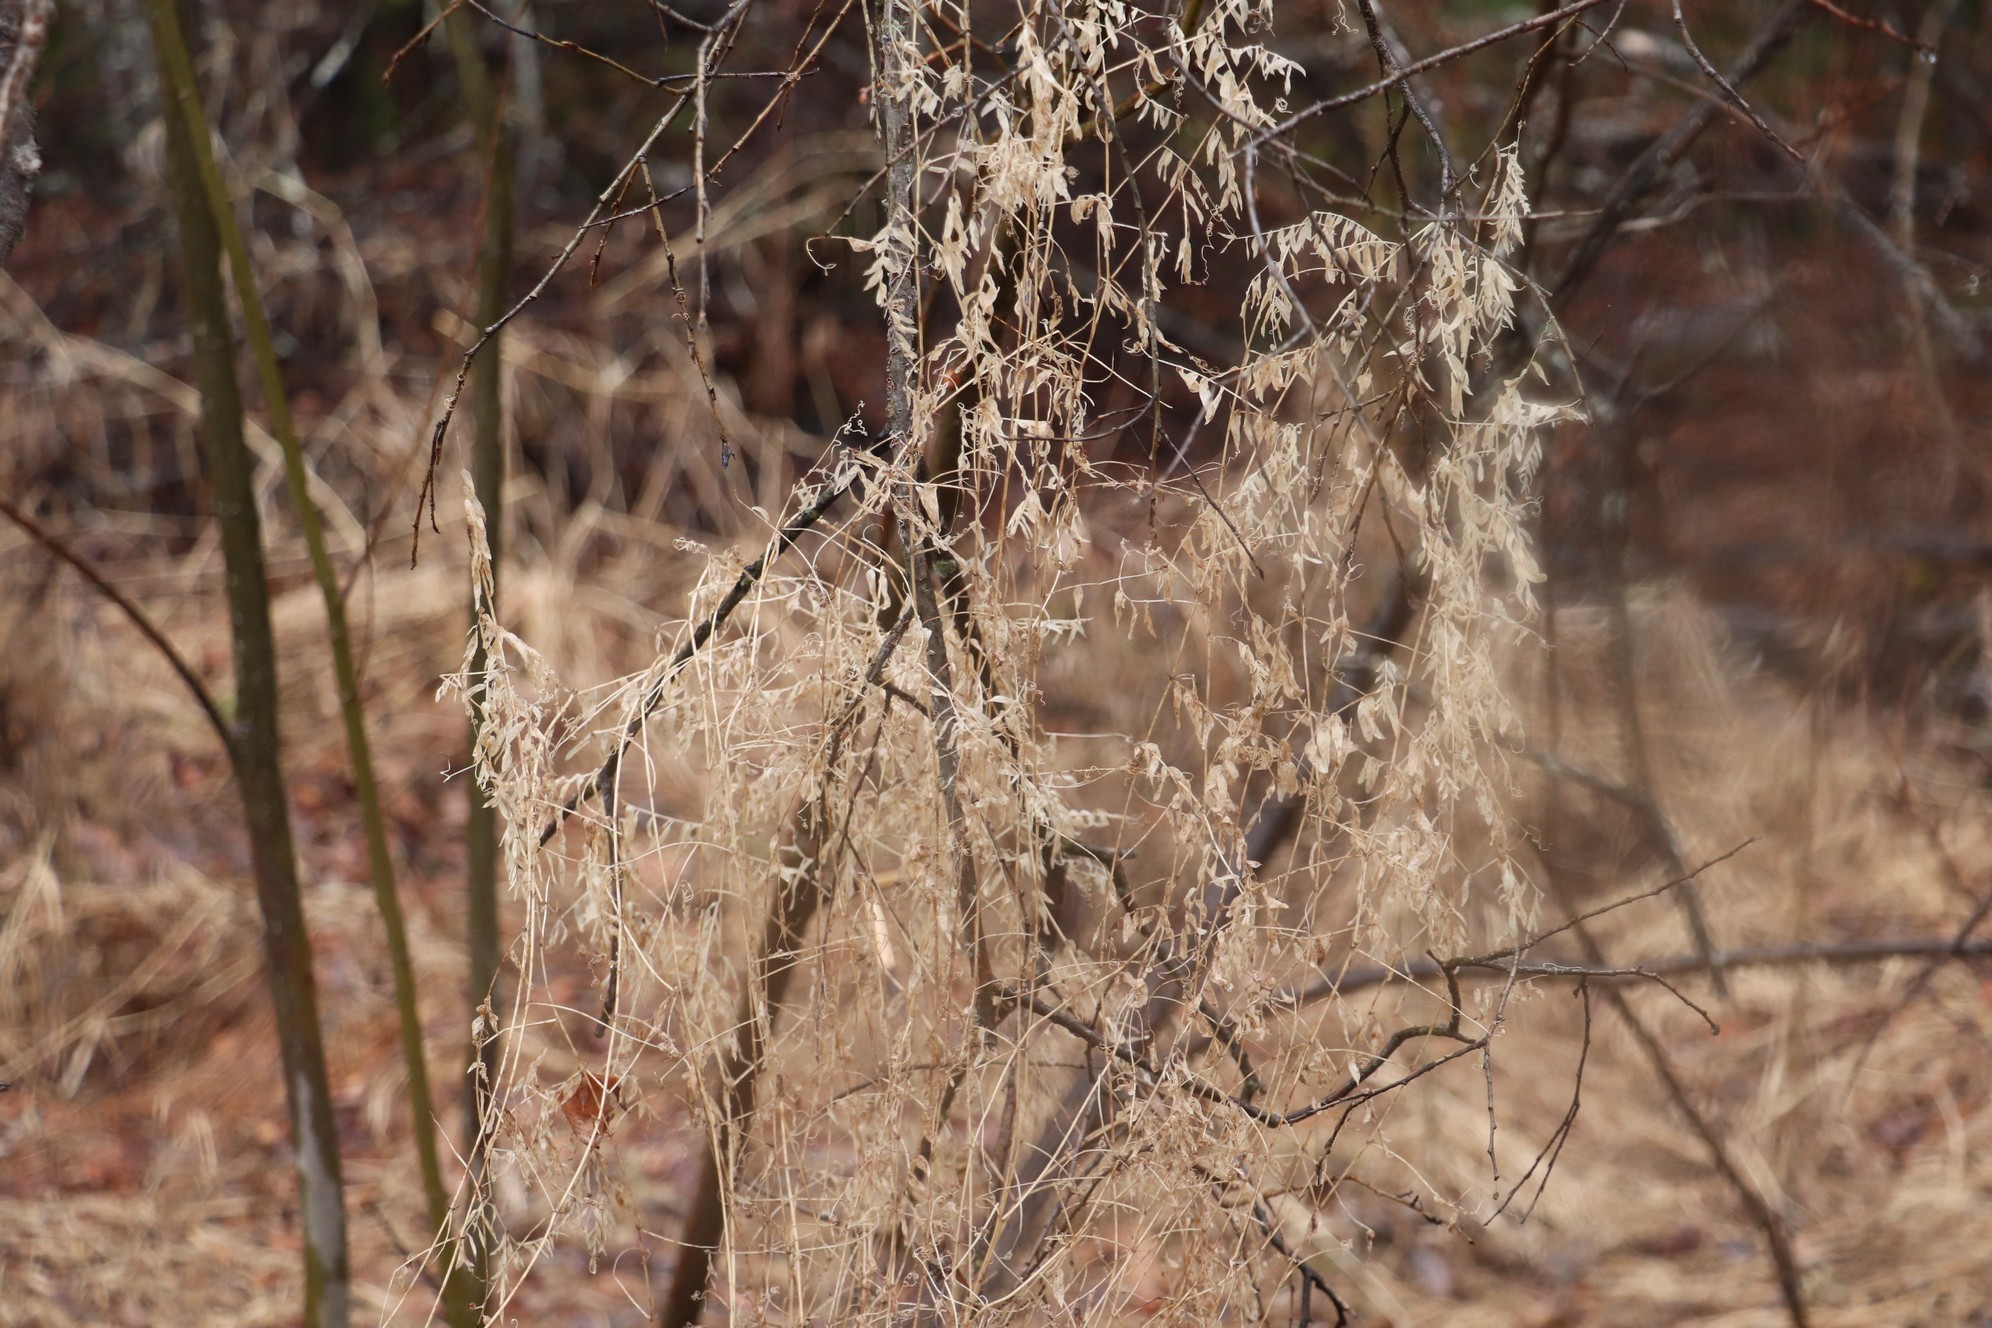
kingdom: Plantae
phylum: Tracheophyta
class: Magnoliopsida
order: Fabales
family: Fabaceae
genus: Vicia
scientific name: Vicia cracca
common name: Bird vetch
